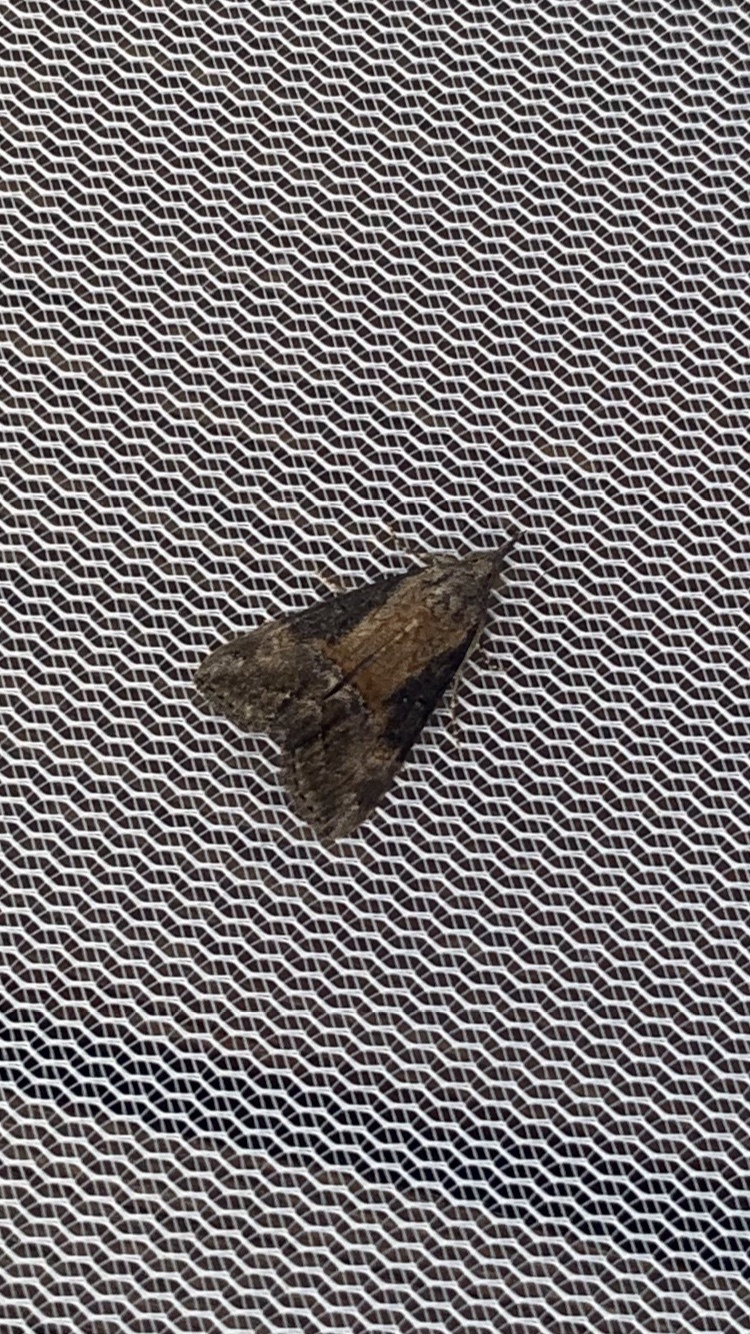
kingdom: Animalia
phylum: Arthropoda
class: Insecta
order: Lepidoptera
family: Erebidae
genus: Hypena
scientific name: Hypena scabra
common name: Green cloverworm
